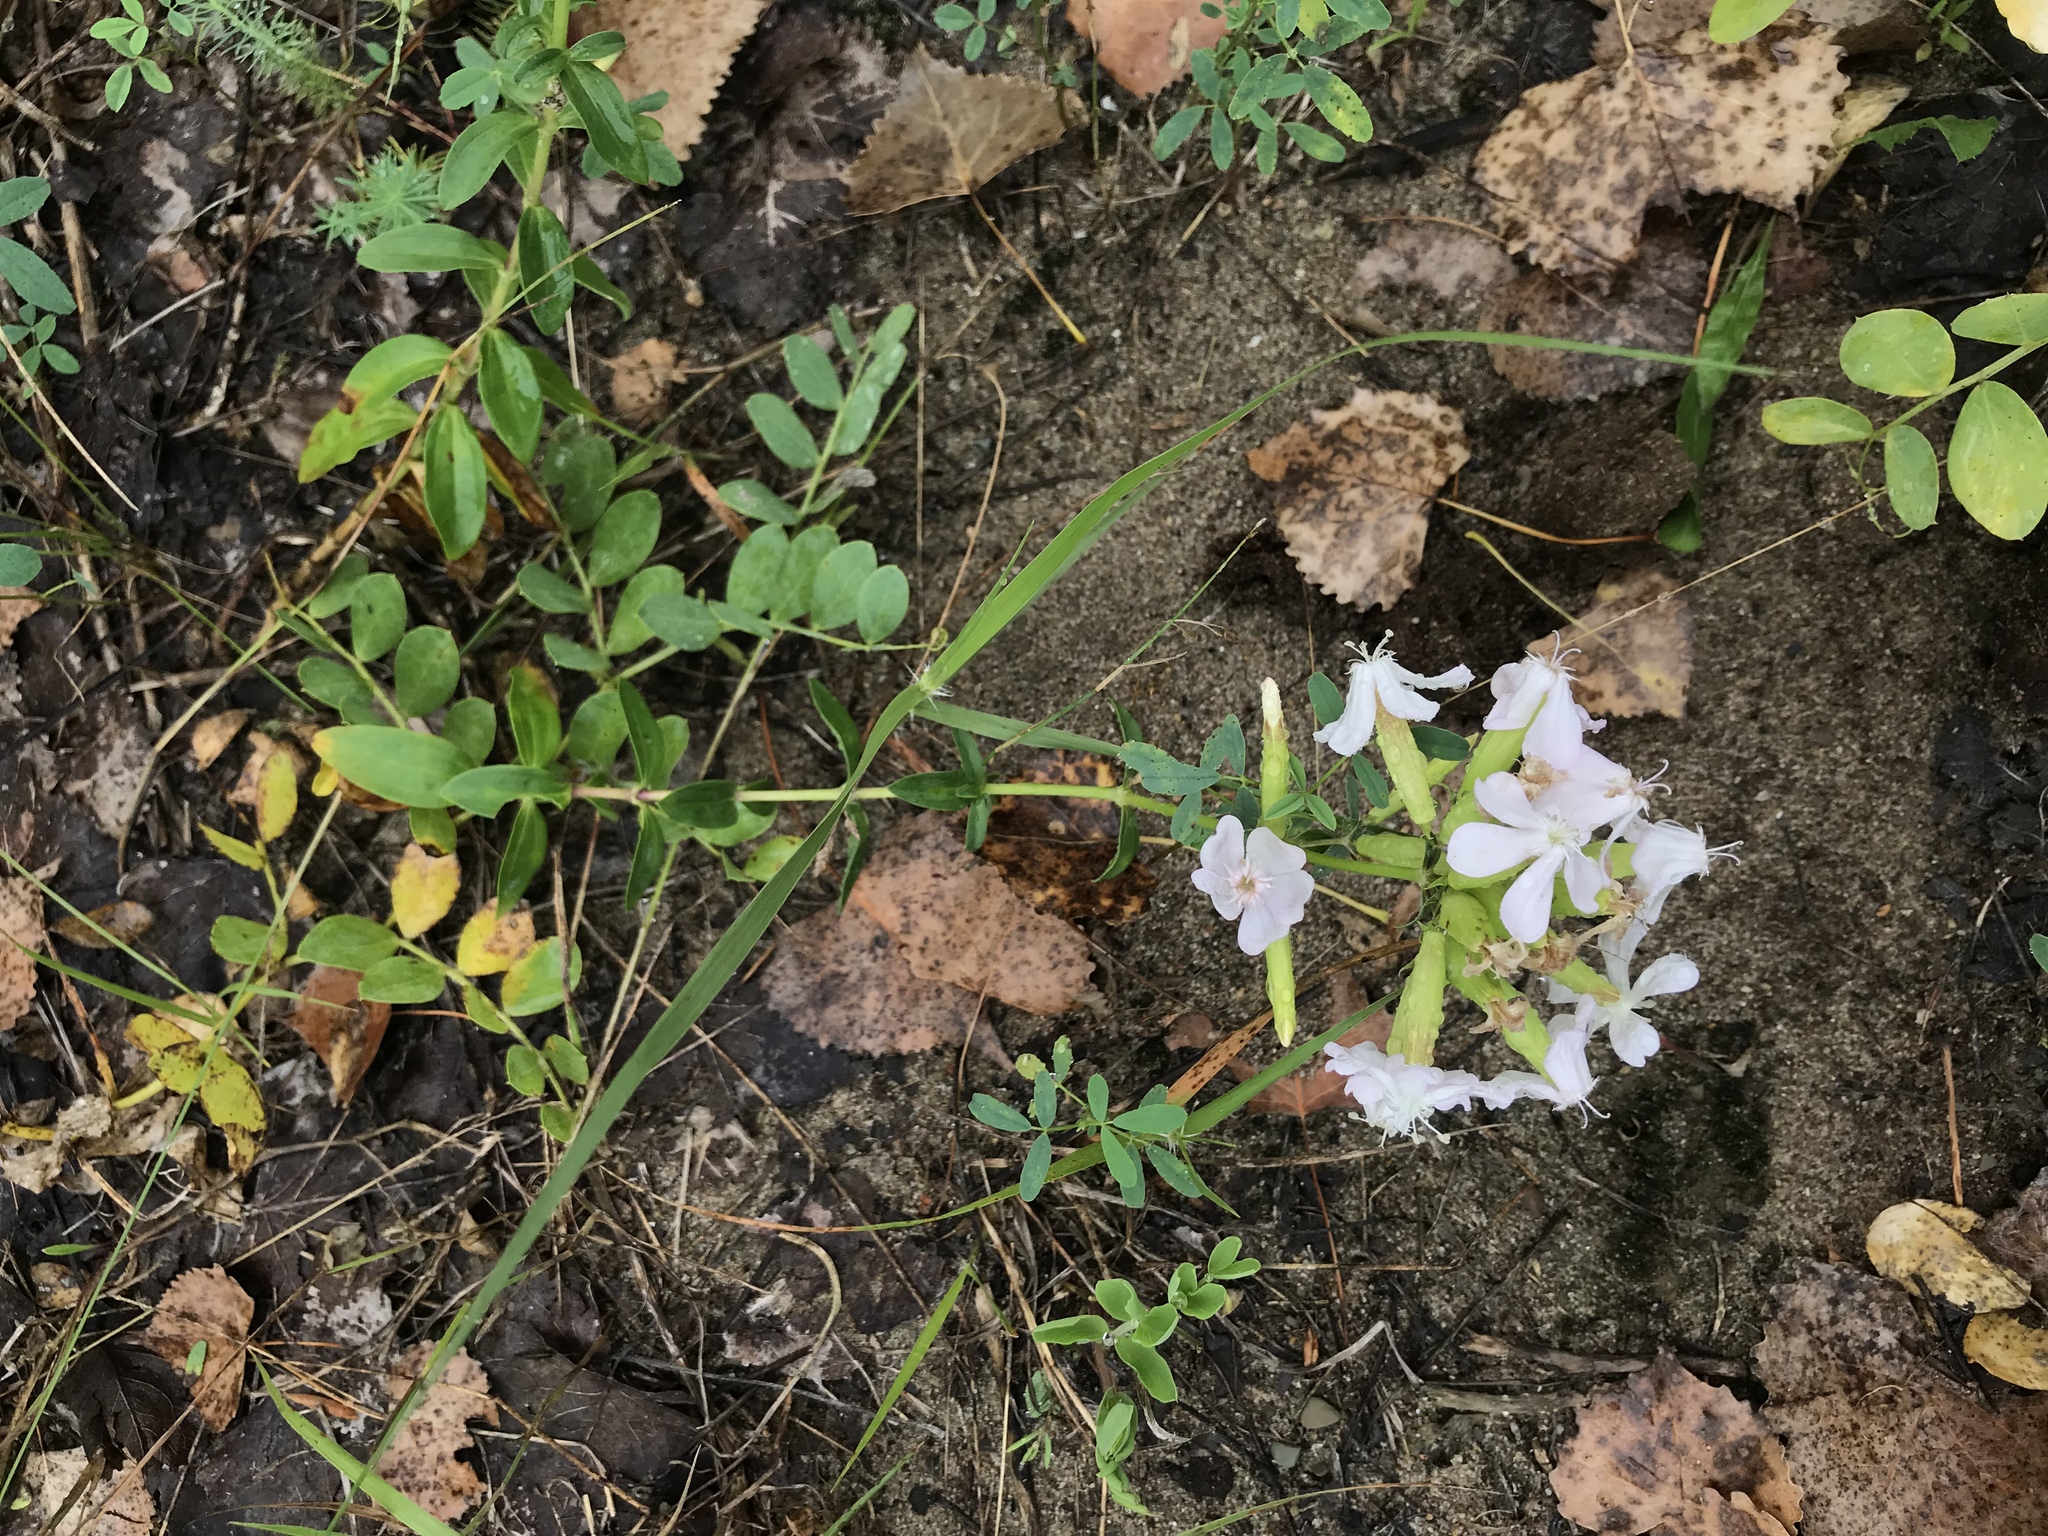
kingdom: Plantae
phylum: Tracheophyta
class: Magnoliopsida
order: Caryophyllales
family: Caryophyllaceae
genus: Saponaria
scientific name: Saponaria officinalis
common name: Soapwort
